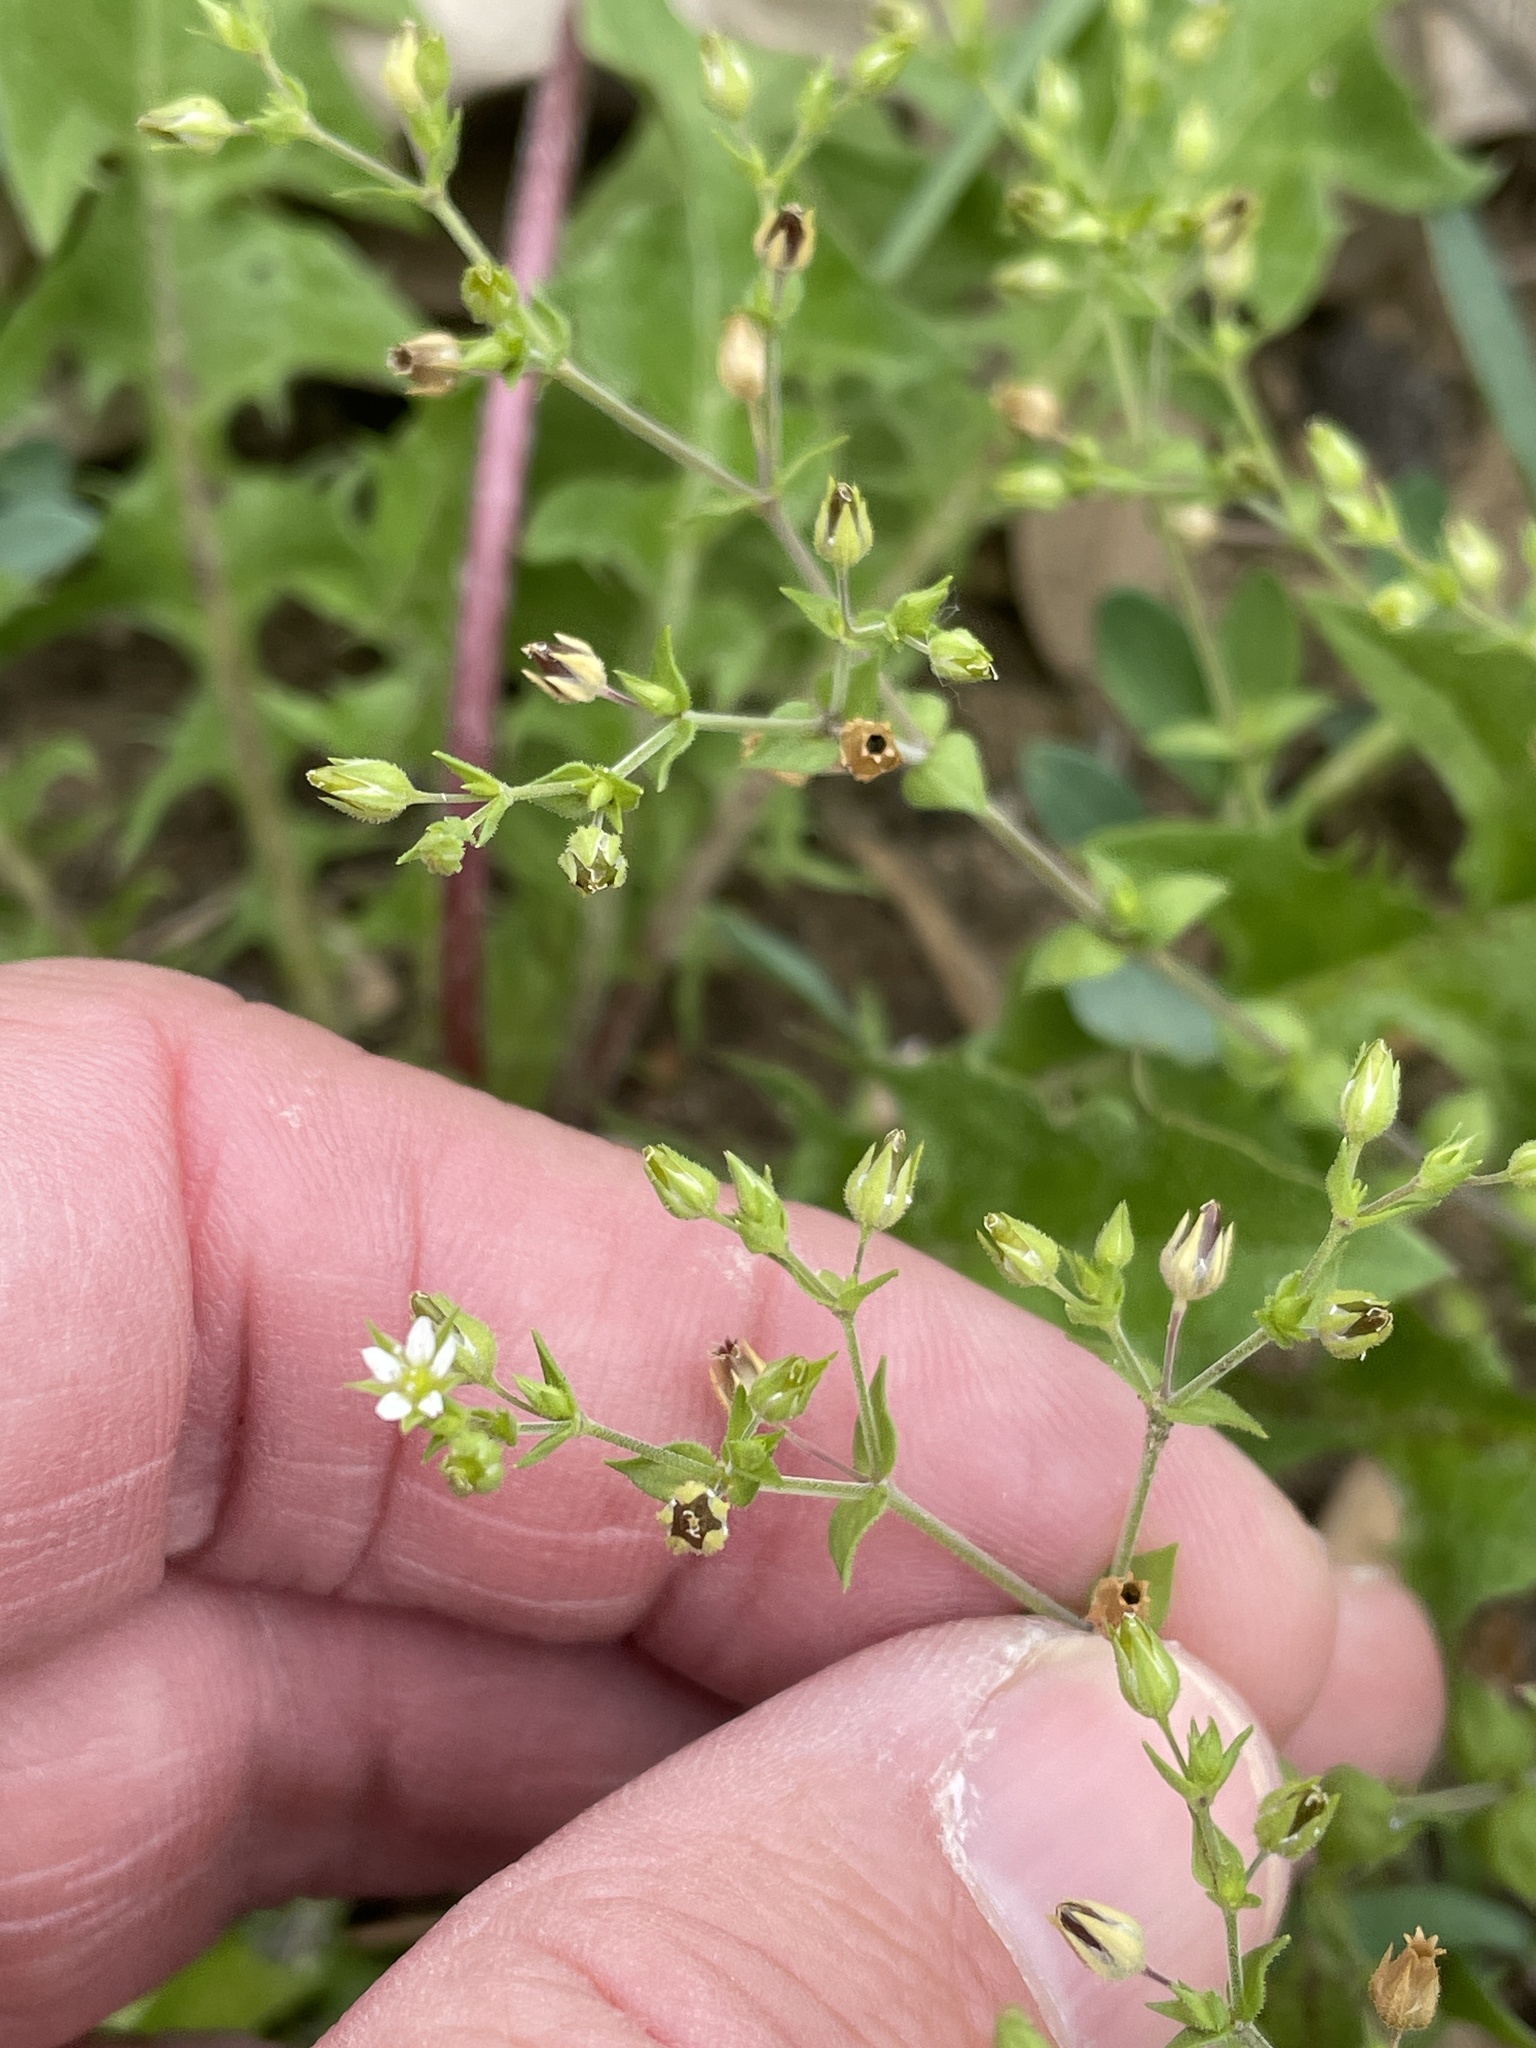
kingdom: Plantae
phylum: Tracheophyta
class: Magnoliopsida
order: Caryophyllales
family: Caryophyllaceae
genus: Arenaria
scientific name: Arenaria serpyllifolia
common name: Thyme-leaved sandwort
